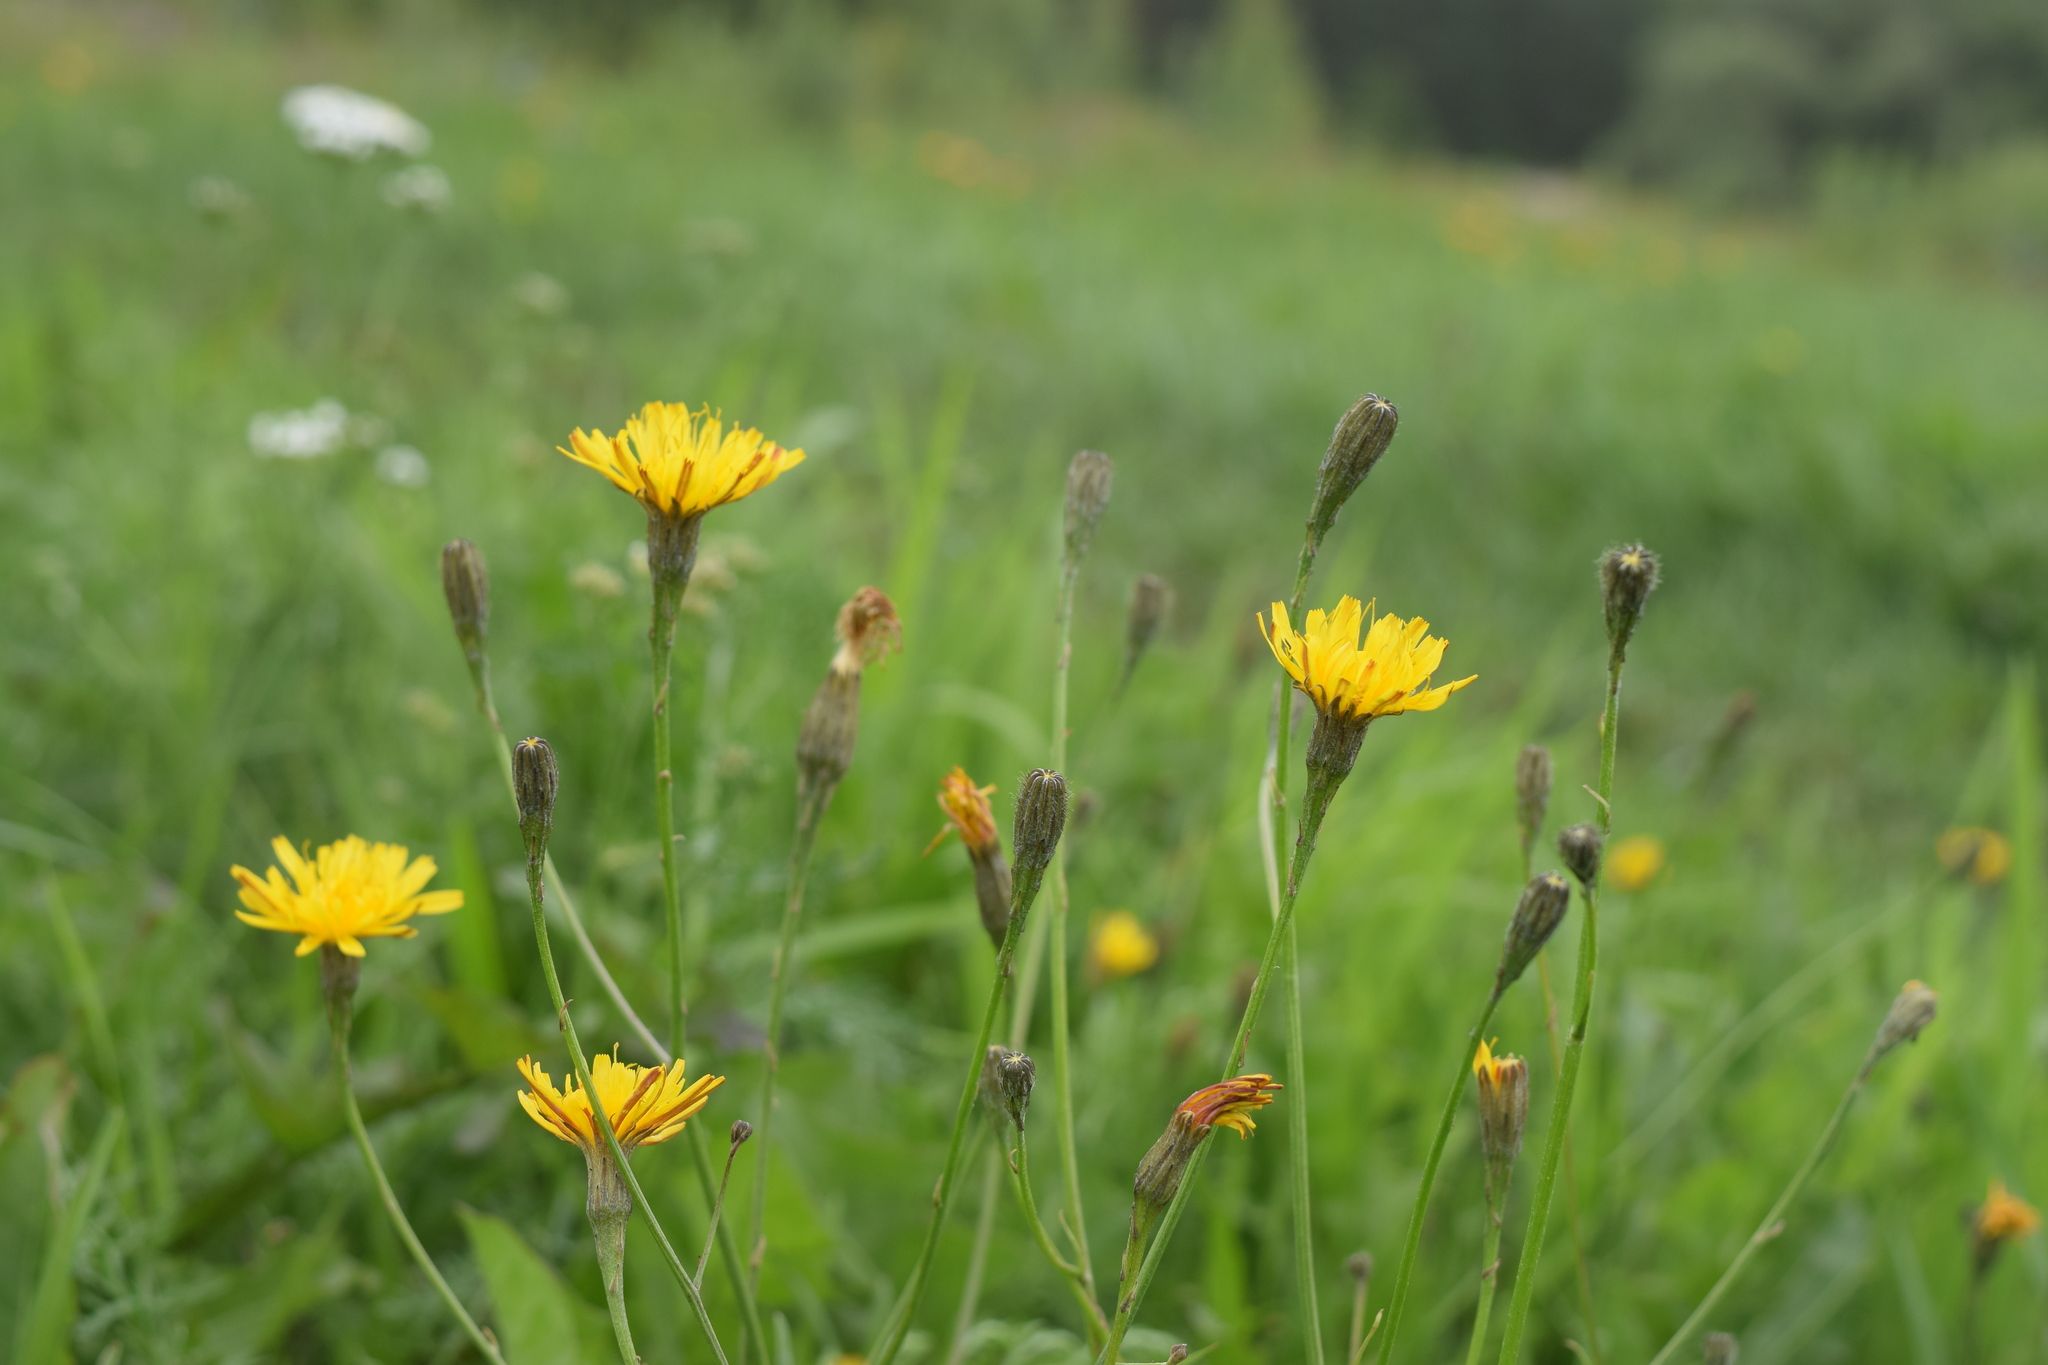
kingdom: Plantae
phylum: Tracheophyta
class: Magnoliopsida
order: Asterales
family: Asteraceae
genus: Scorzoneroides
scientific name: Scorzoneroides autumnalis
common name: Autumn hawkbit
